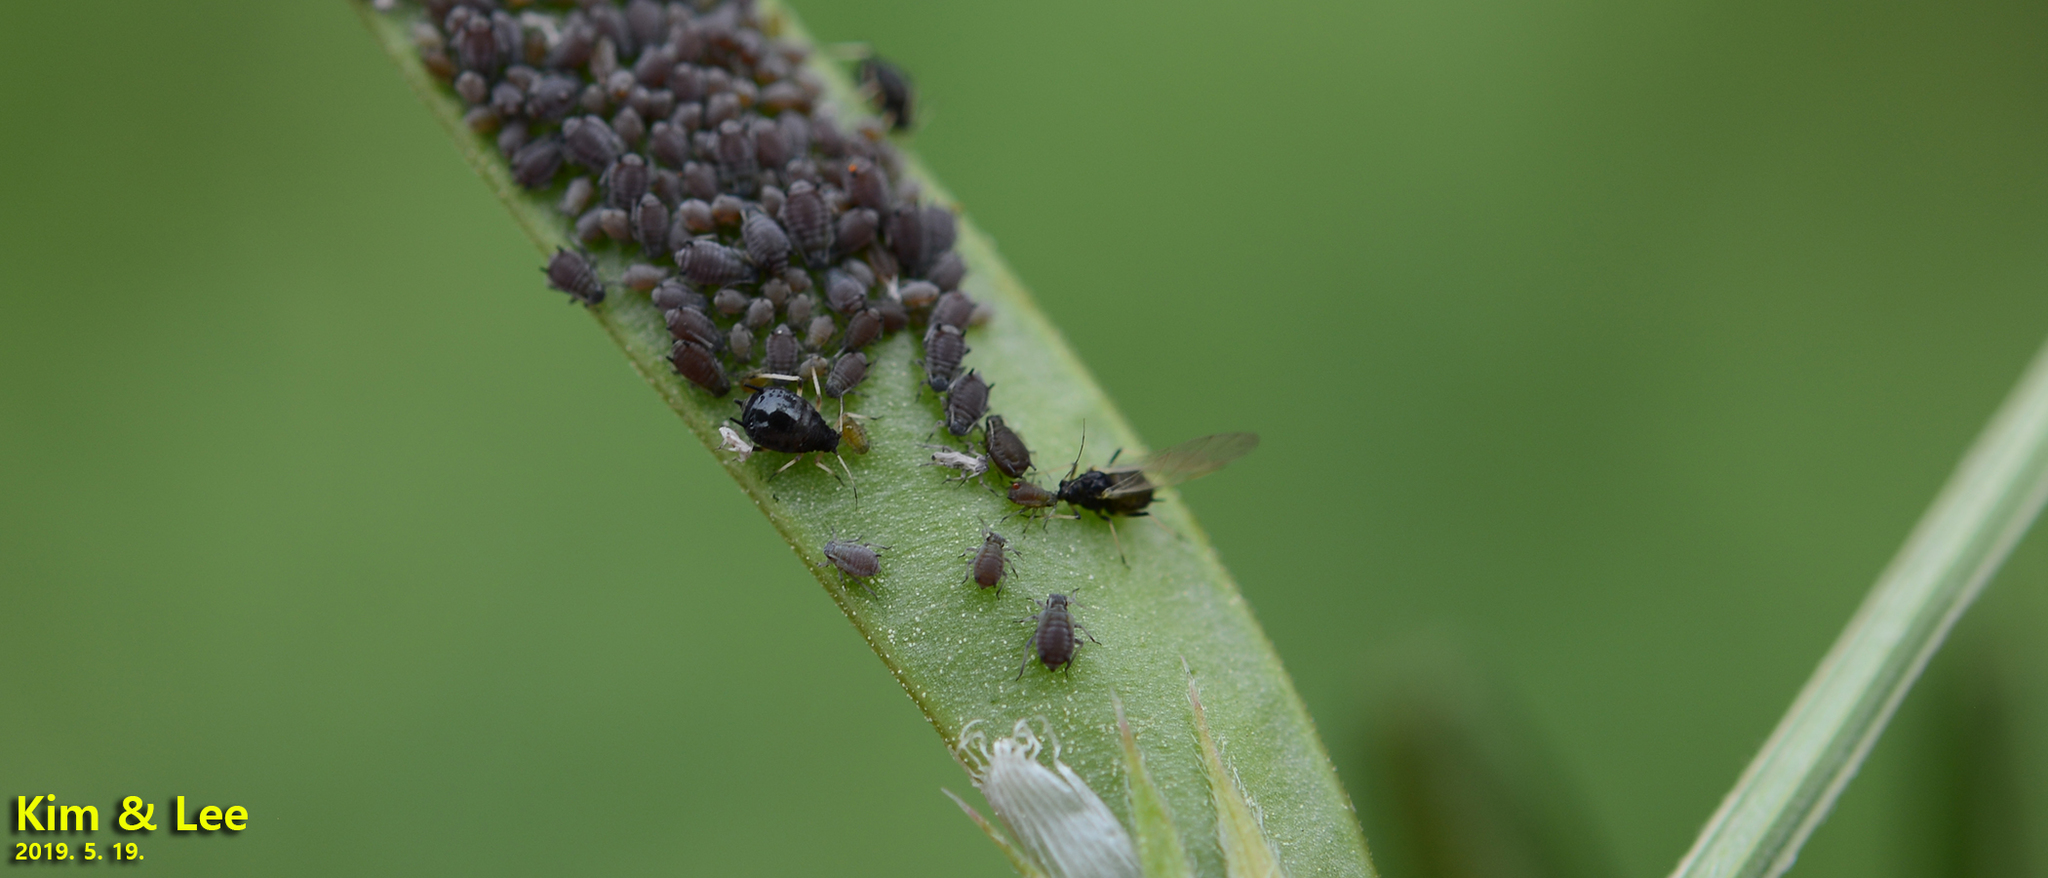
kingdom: Animalia
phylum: Arthropoda
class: Insecta
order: Hemiptera
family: Aphididae
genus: Aphis
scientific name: Aphis craccivora
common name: Cowpea aphid
